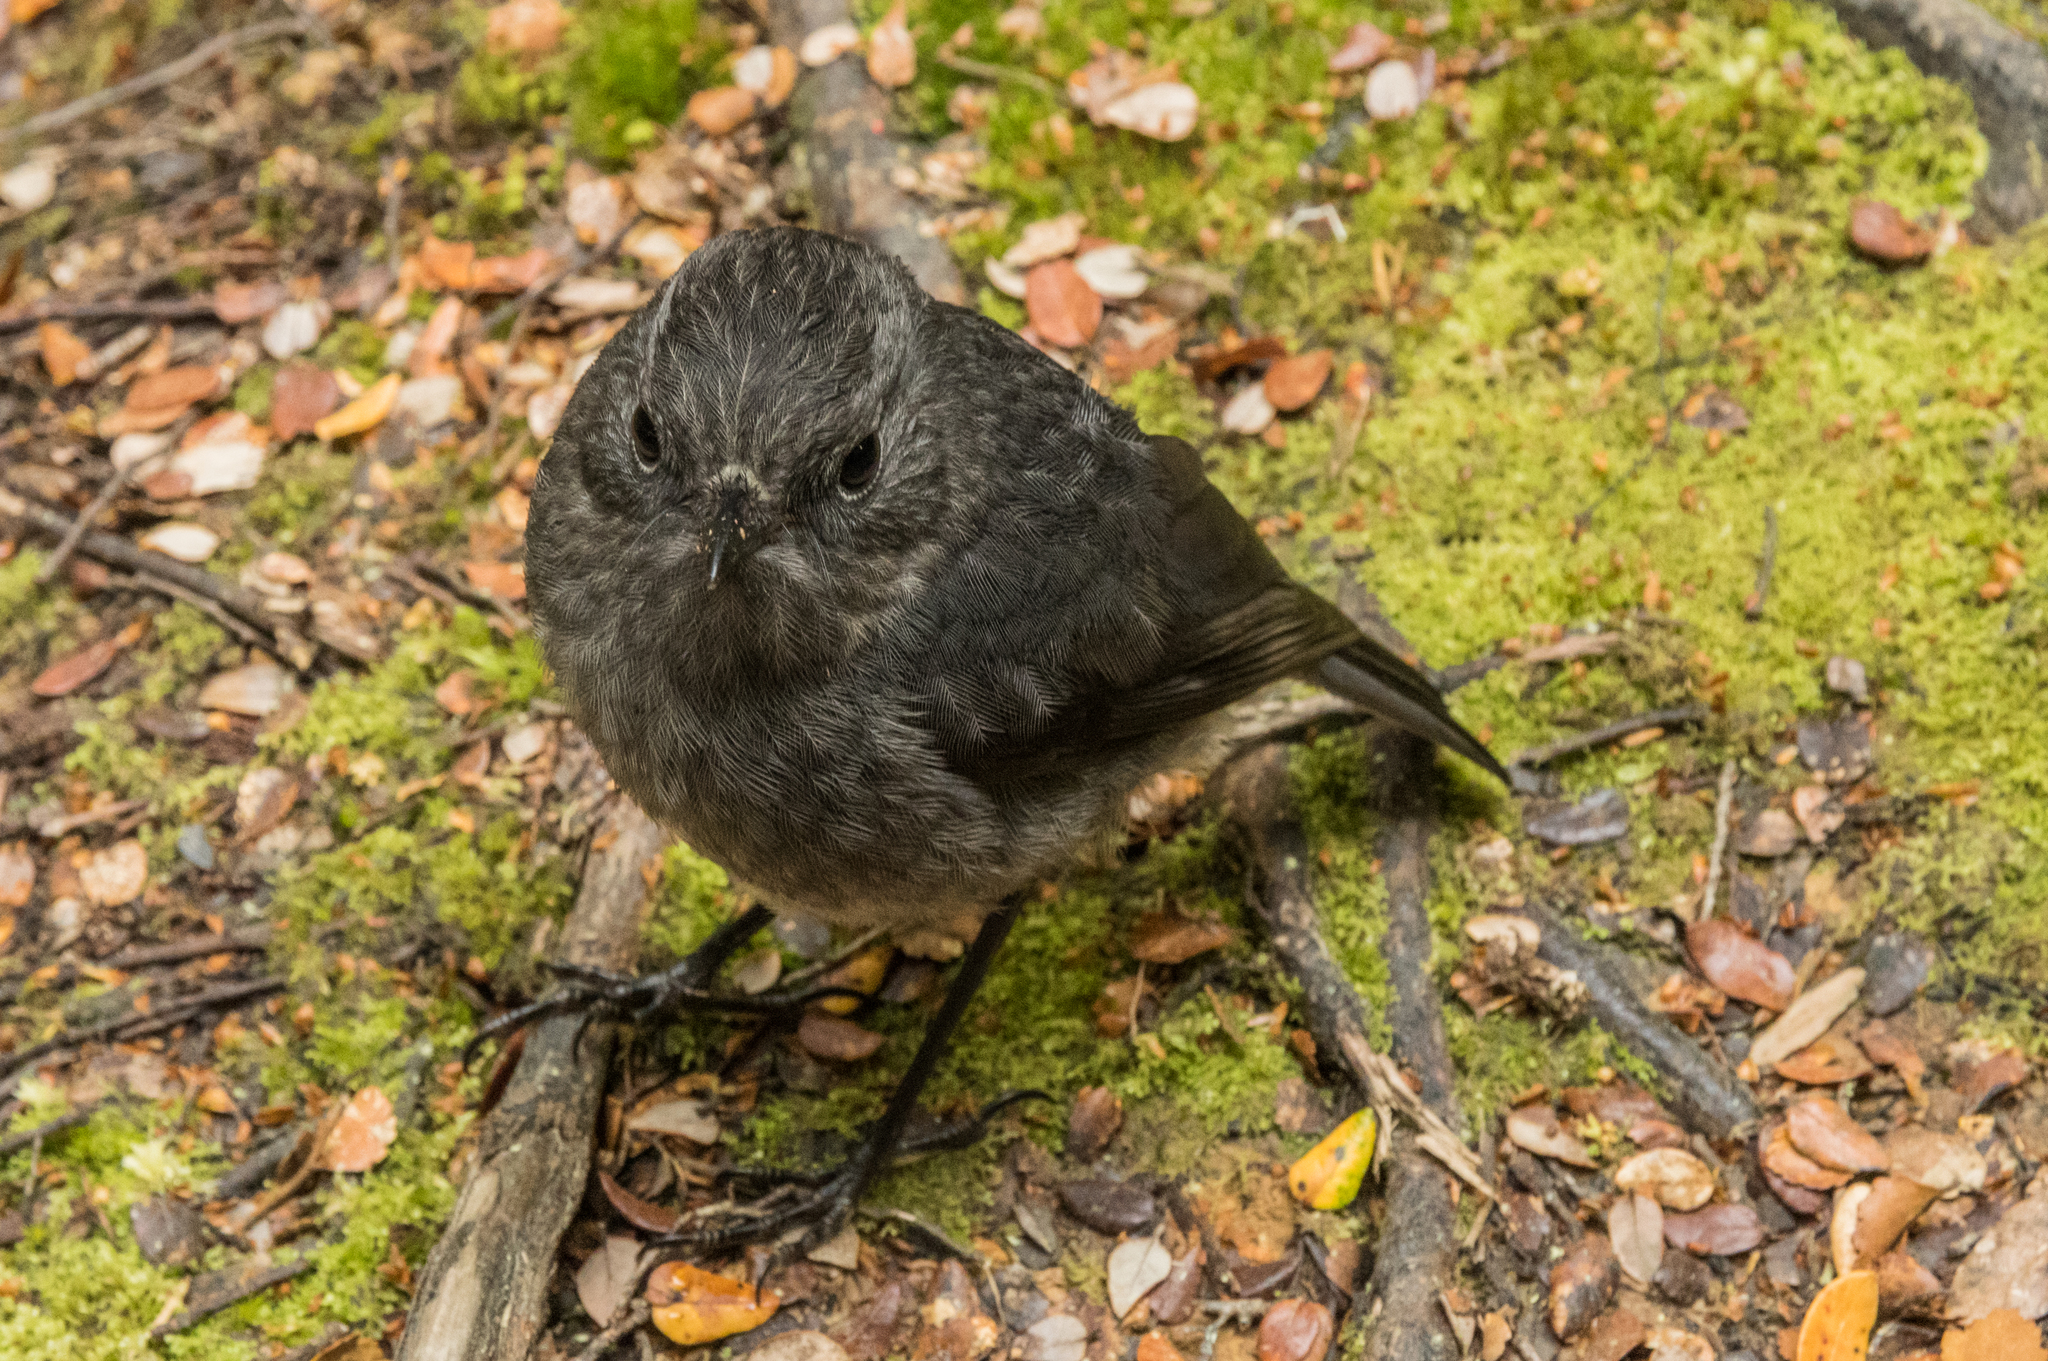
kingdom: Animalia
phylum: Chordata
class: Aves
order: Passeriformes
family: Petroicidae
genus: Petroica
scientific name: Petroica australis
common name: New zealand robin
